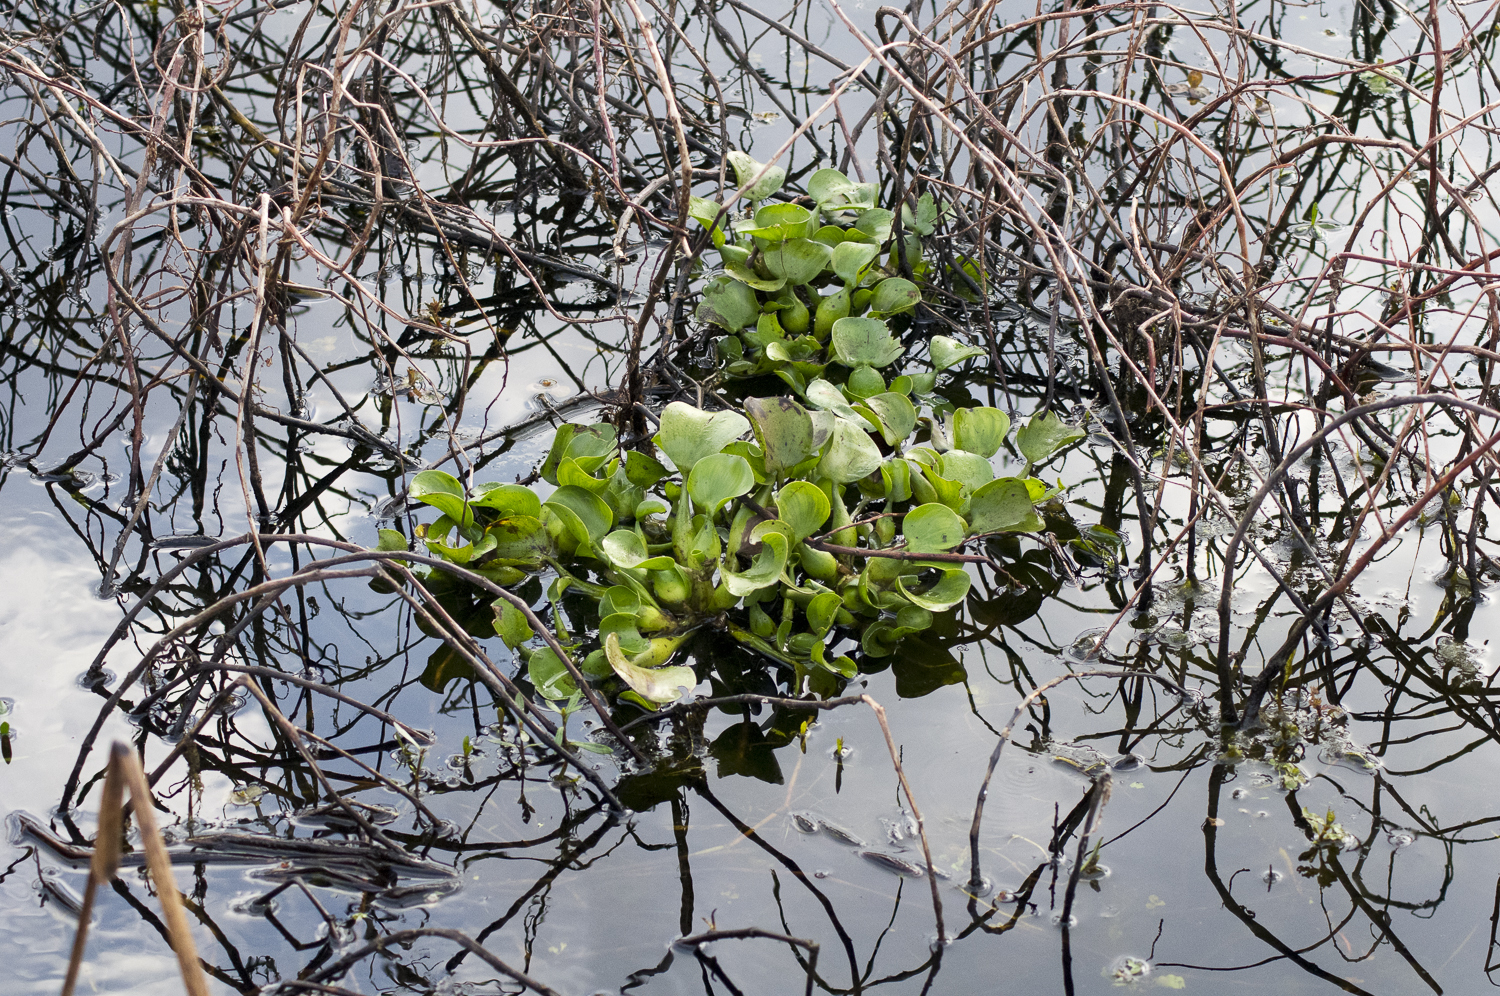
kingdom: Plantae
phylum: Tracheophyta
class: Liliopsida
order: Commelinales
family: Pontederiaceae
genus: Pontederia
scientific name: Pontederia crassipes
